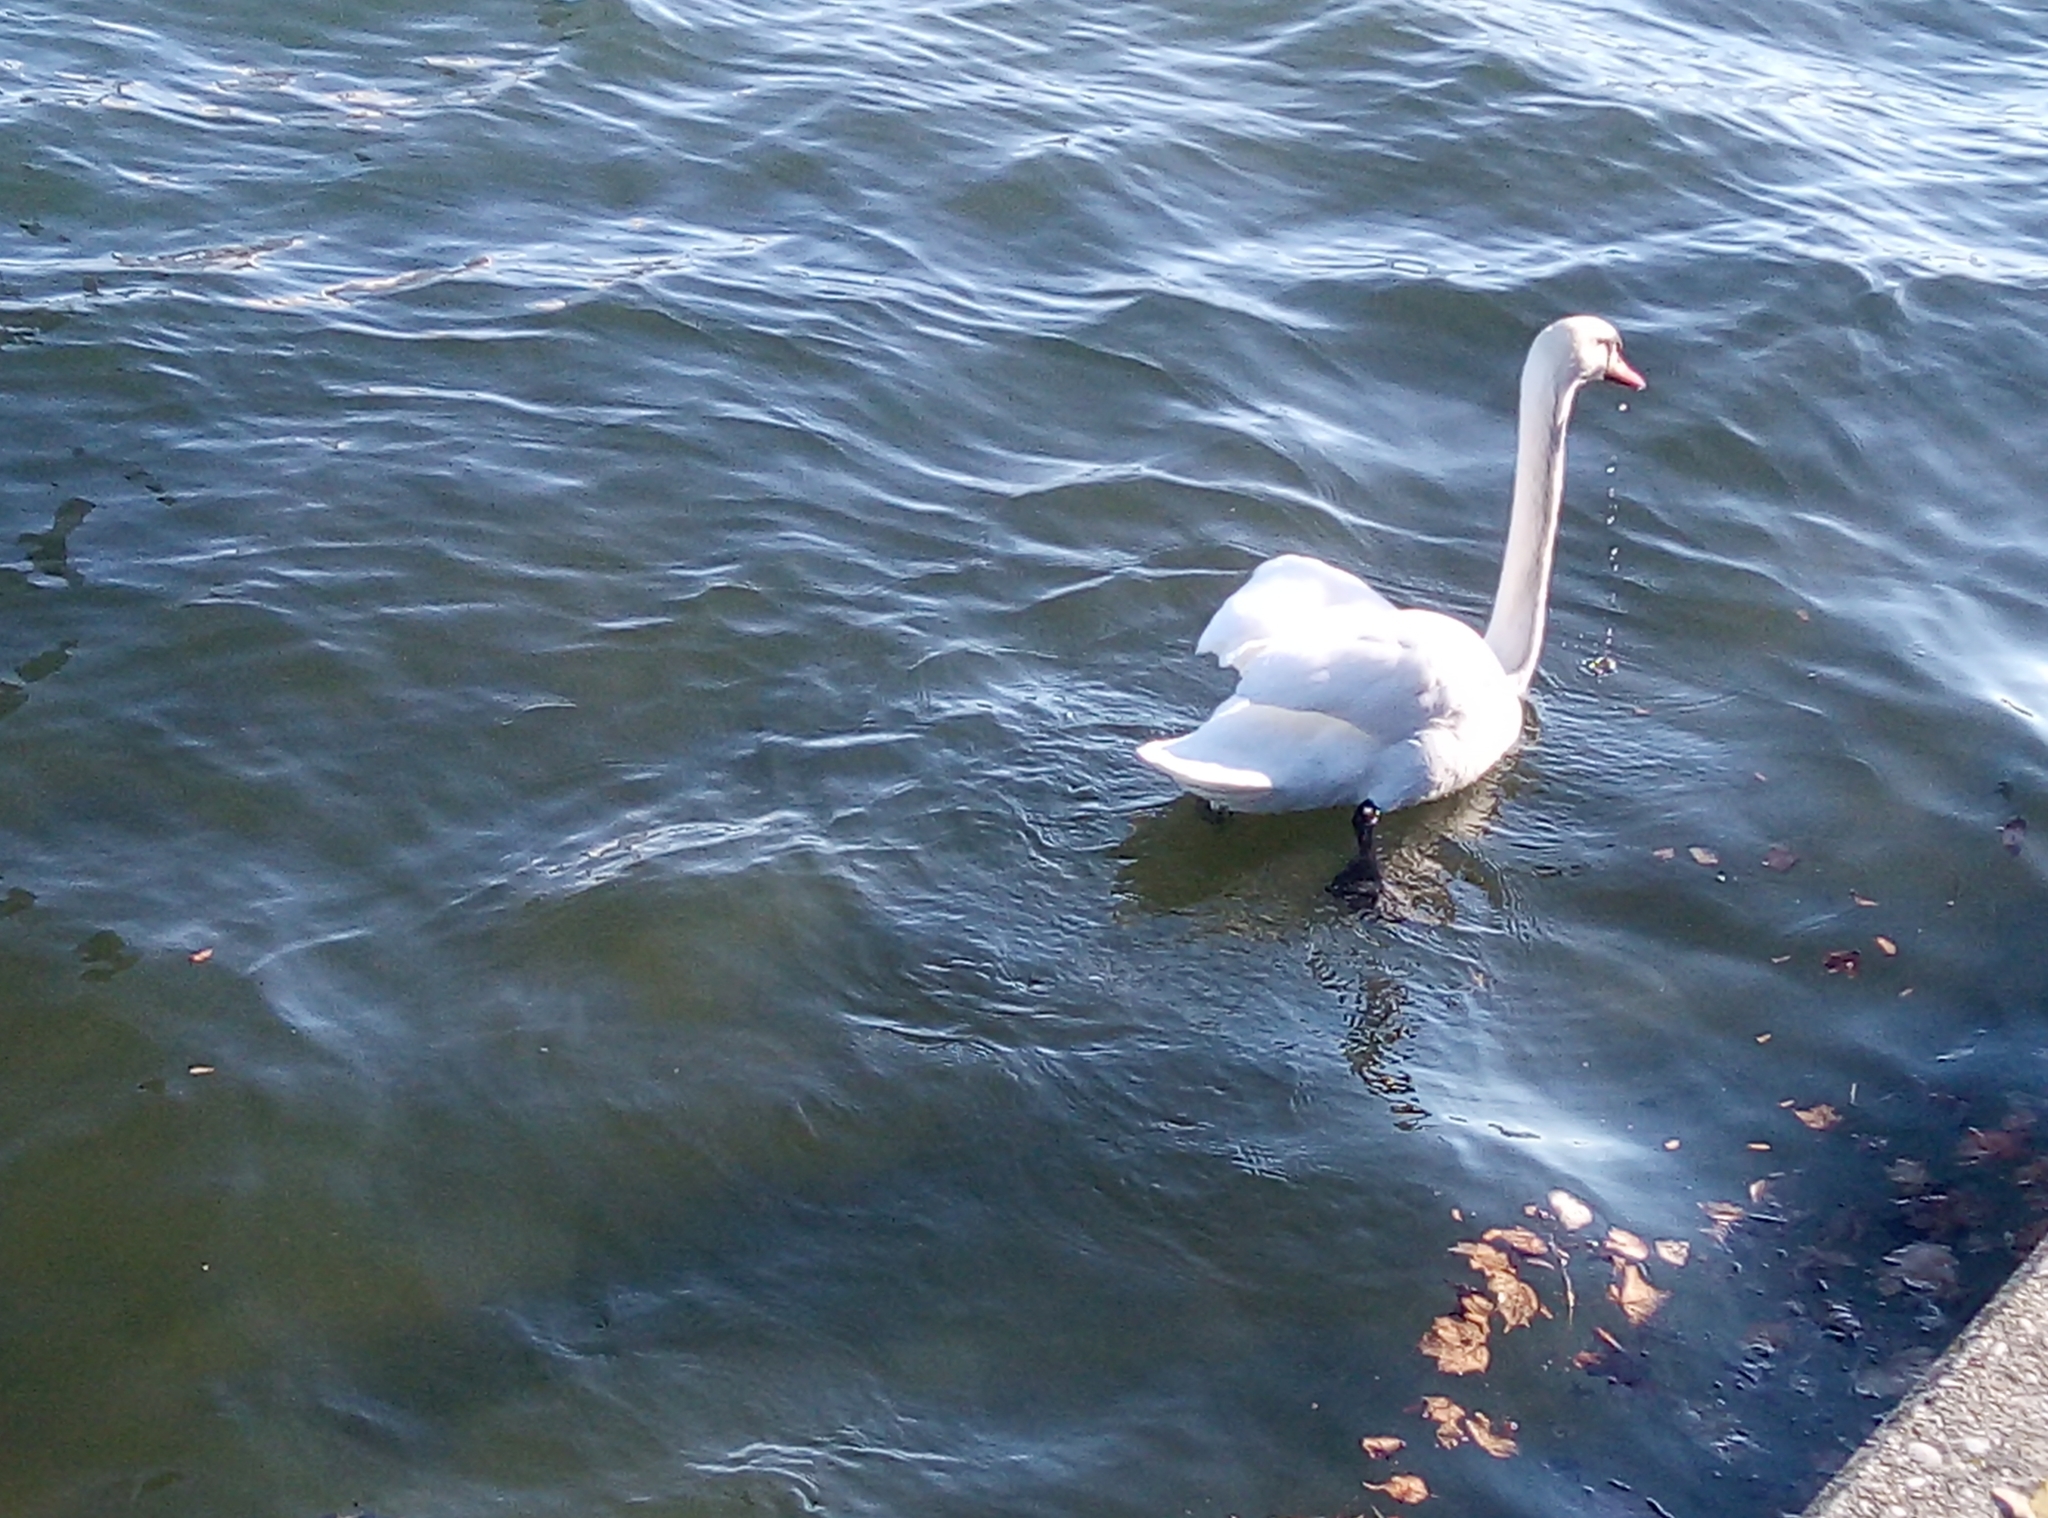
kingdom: Animalia
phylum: Chordata
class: Aves
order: Anseriformes
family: Anatidae
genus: Cygnus
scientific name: Cygnus olor
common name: Mute swan
